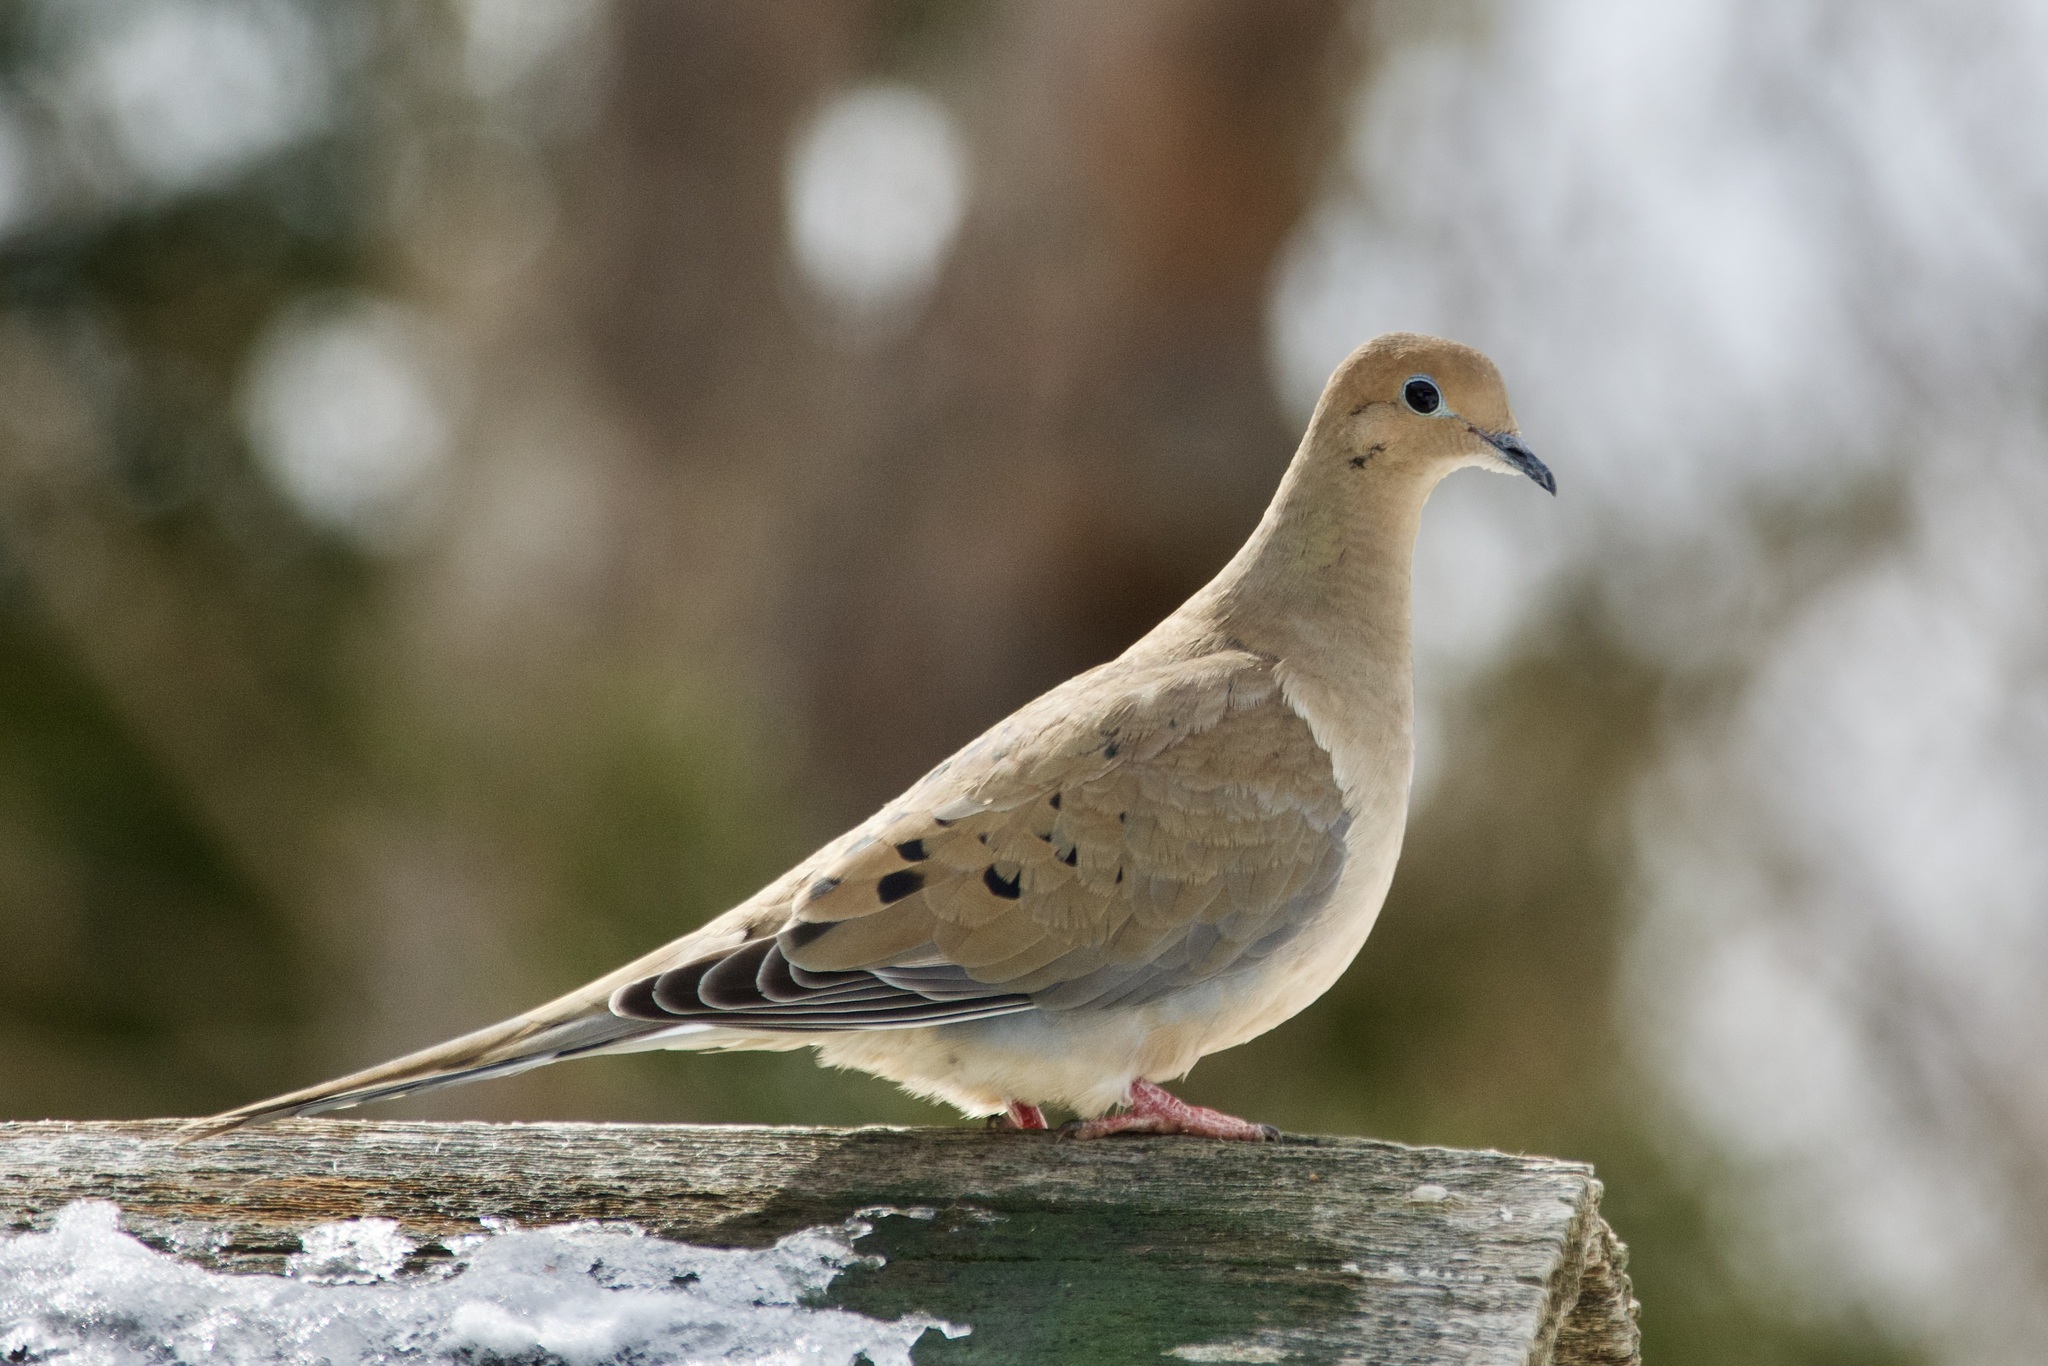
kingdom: Animalia
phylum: Chordata
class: Aves
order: Columbiformes
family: Columbidae
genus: Zenaida
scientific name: Zenaida macroura
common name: Mourning dove
